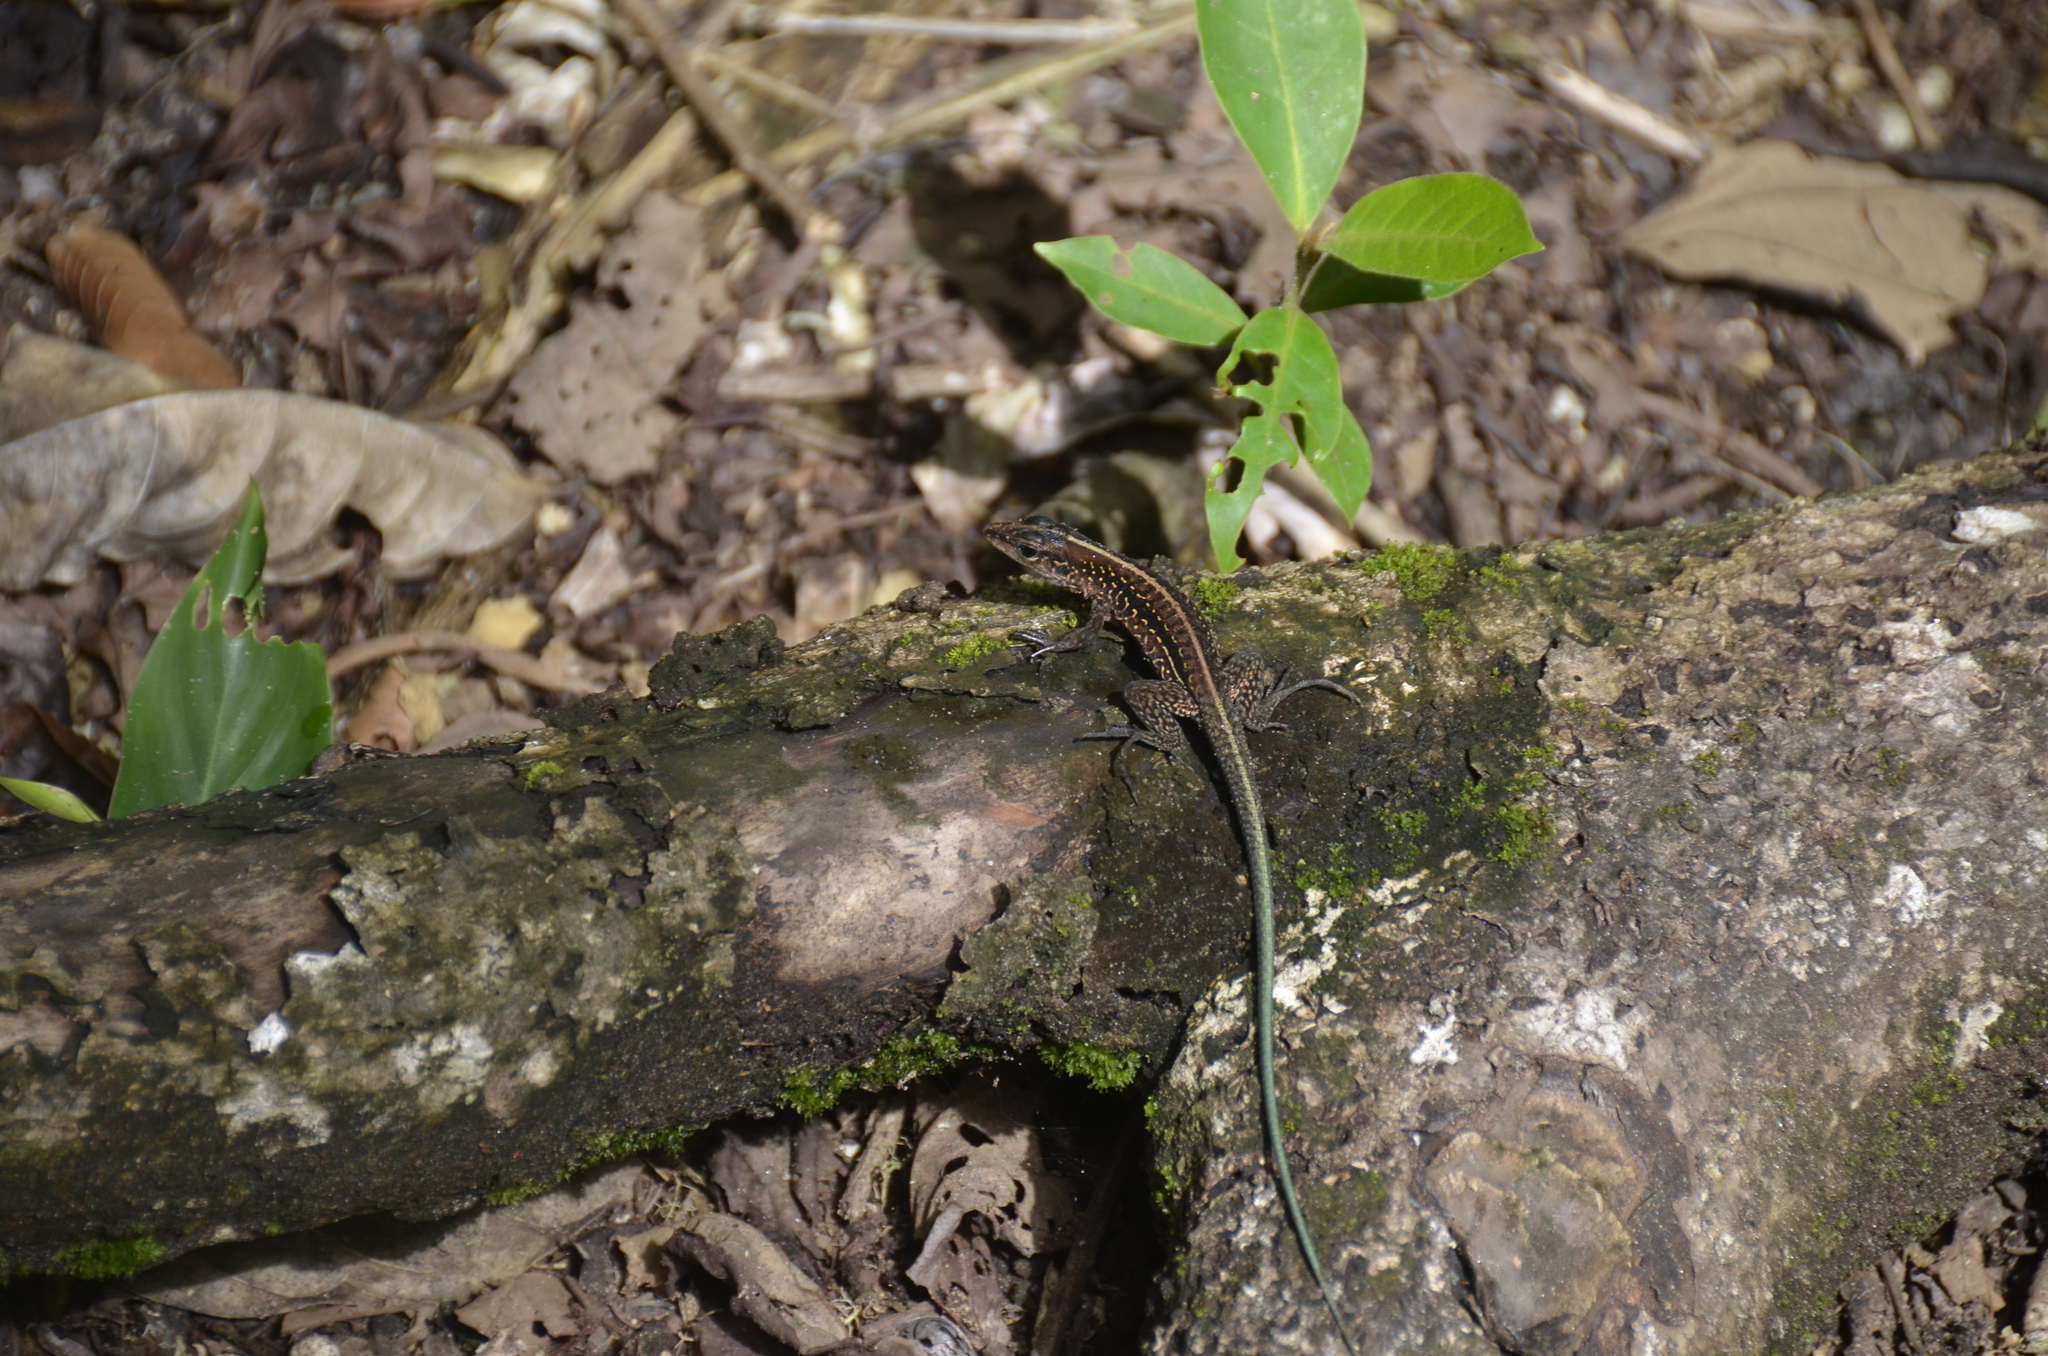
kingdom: Animalia
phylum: Chordata
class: Squamata
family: Teiidae
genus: Holcosus
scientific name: Holcosus festivus
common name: Middle american ameiva
